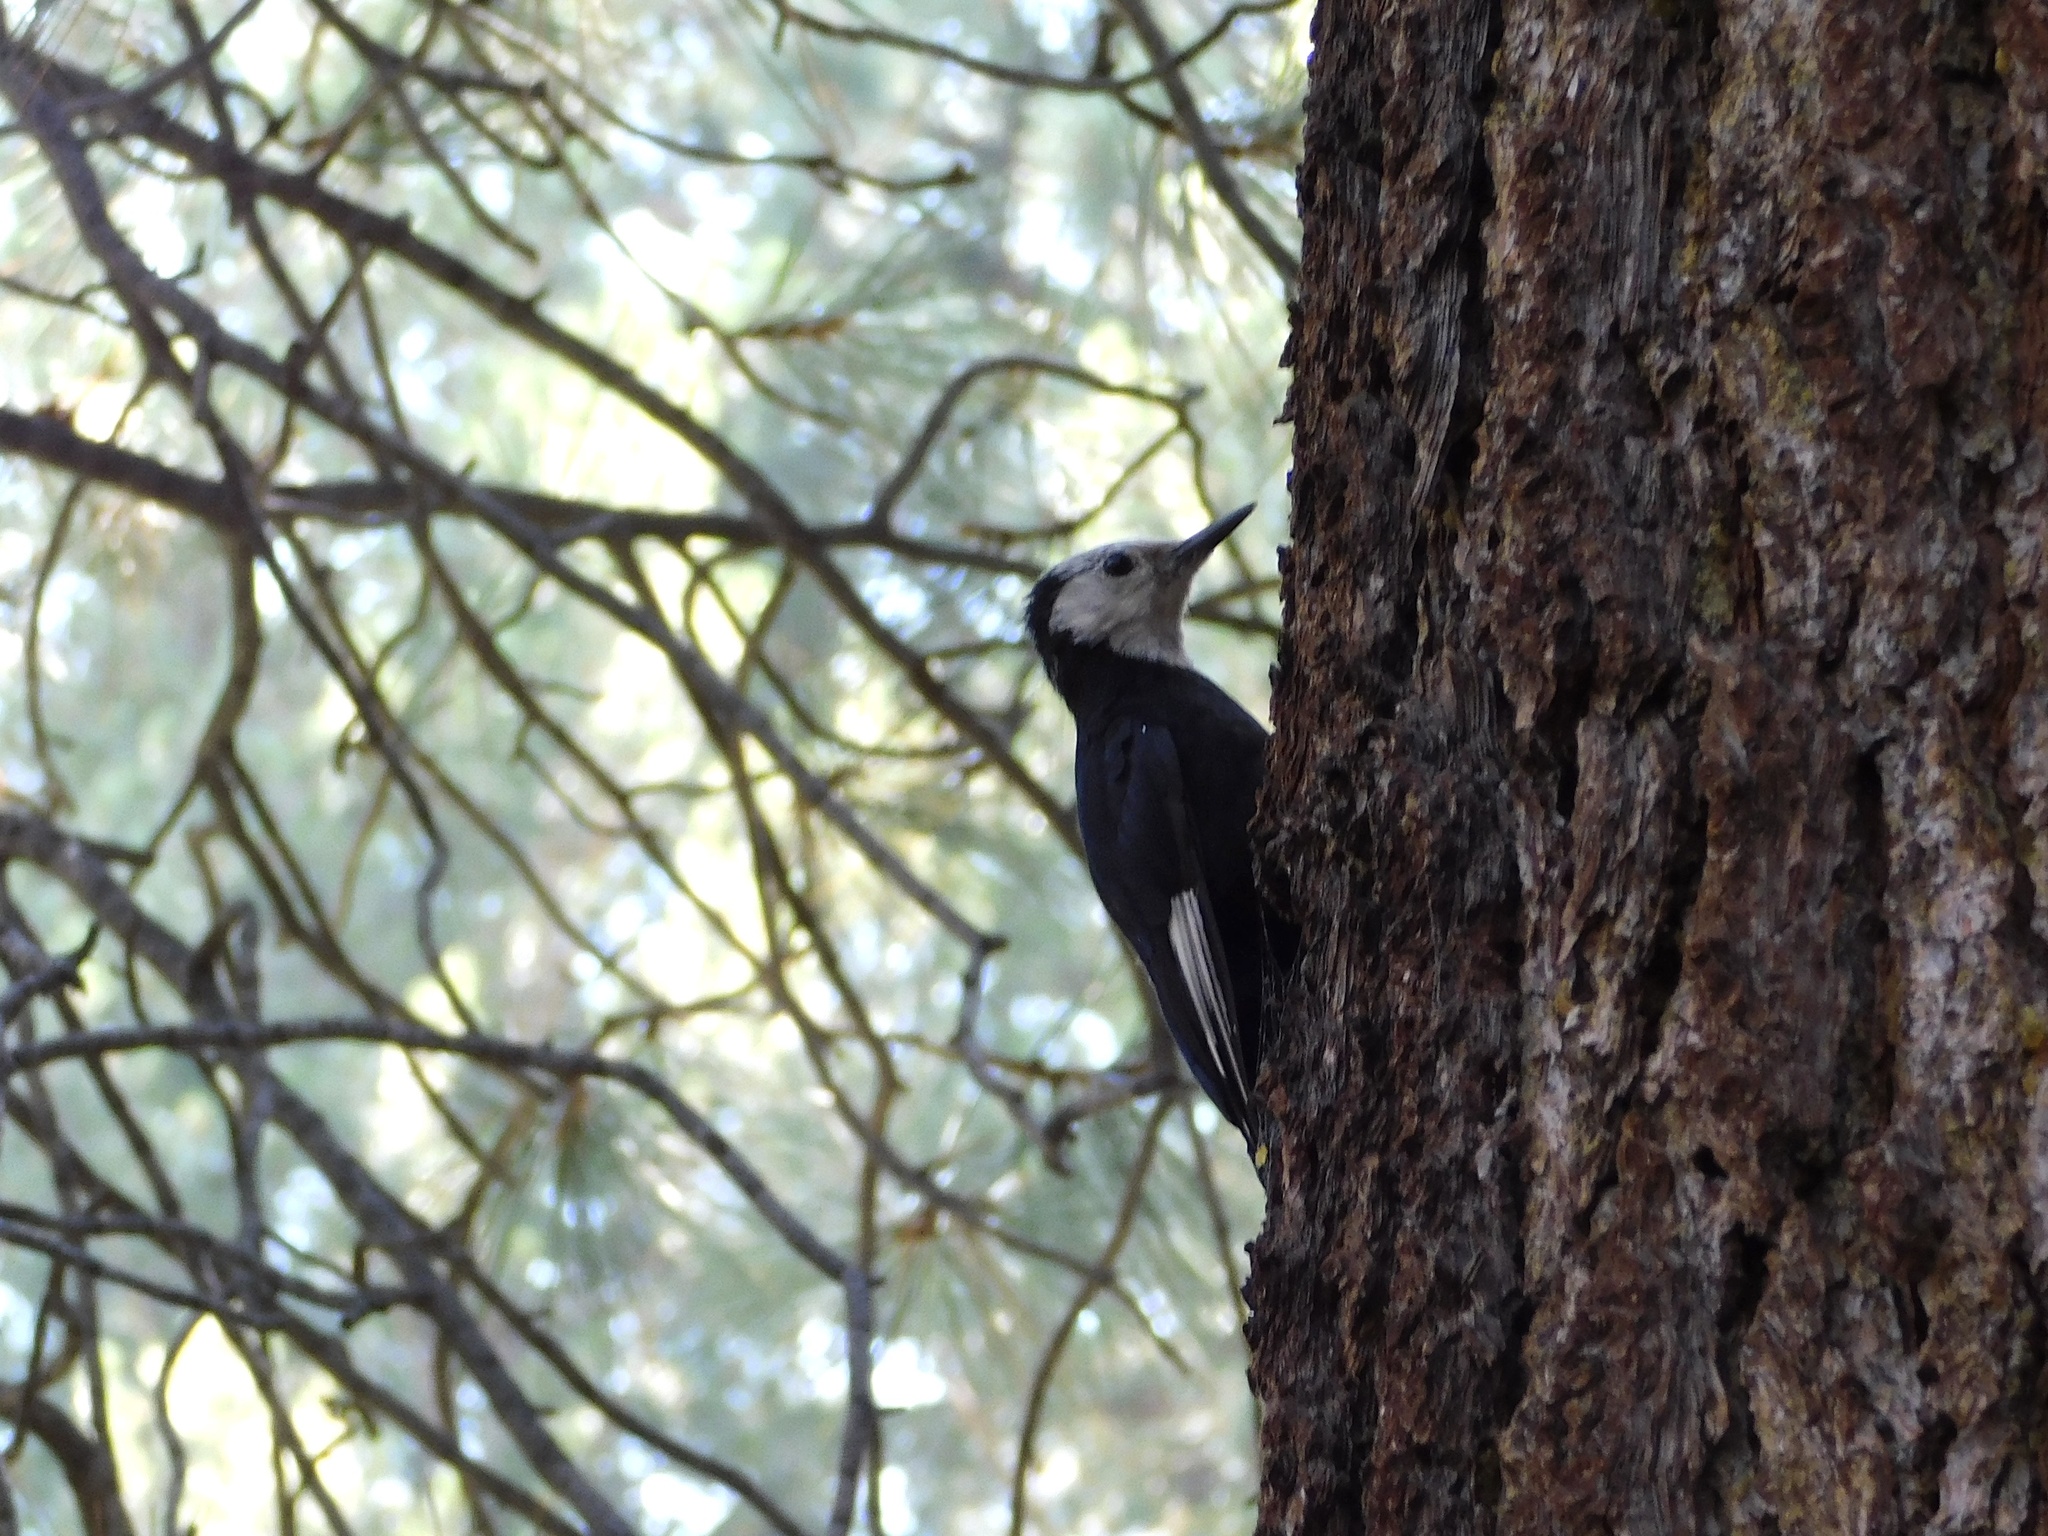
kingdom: Animalia
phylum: Chordata
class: Aves
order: Piciformes
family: Picidae
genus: Leuconotopicus
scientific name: Leuconotopicus albolarvatus
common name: White-headed woodpecker
